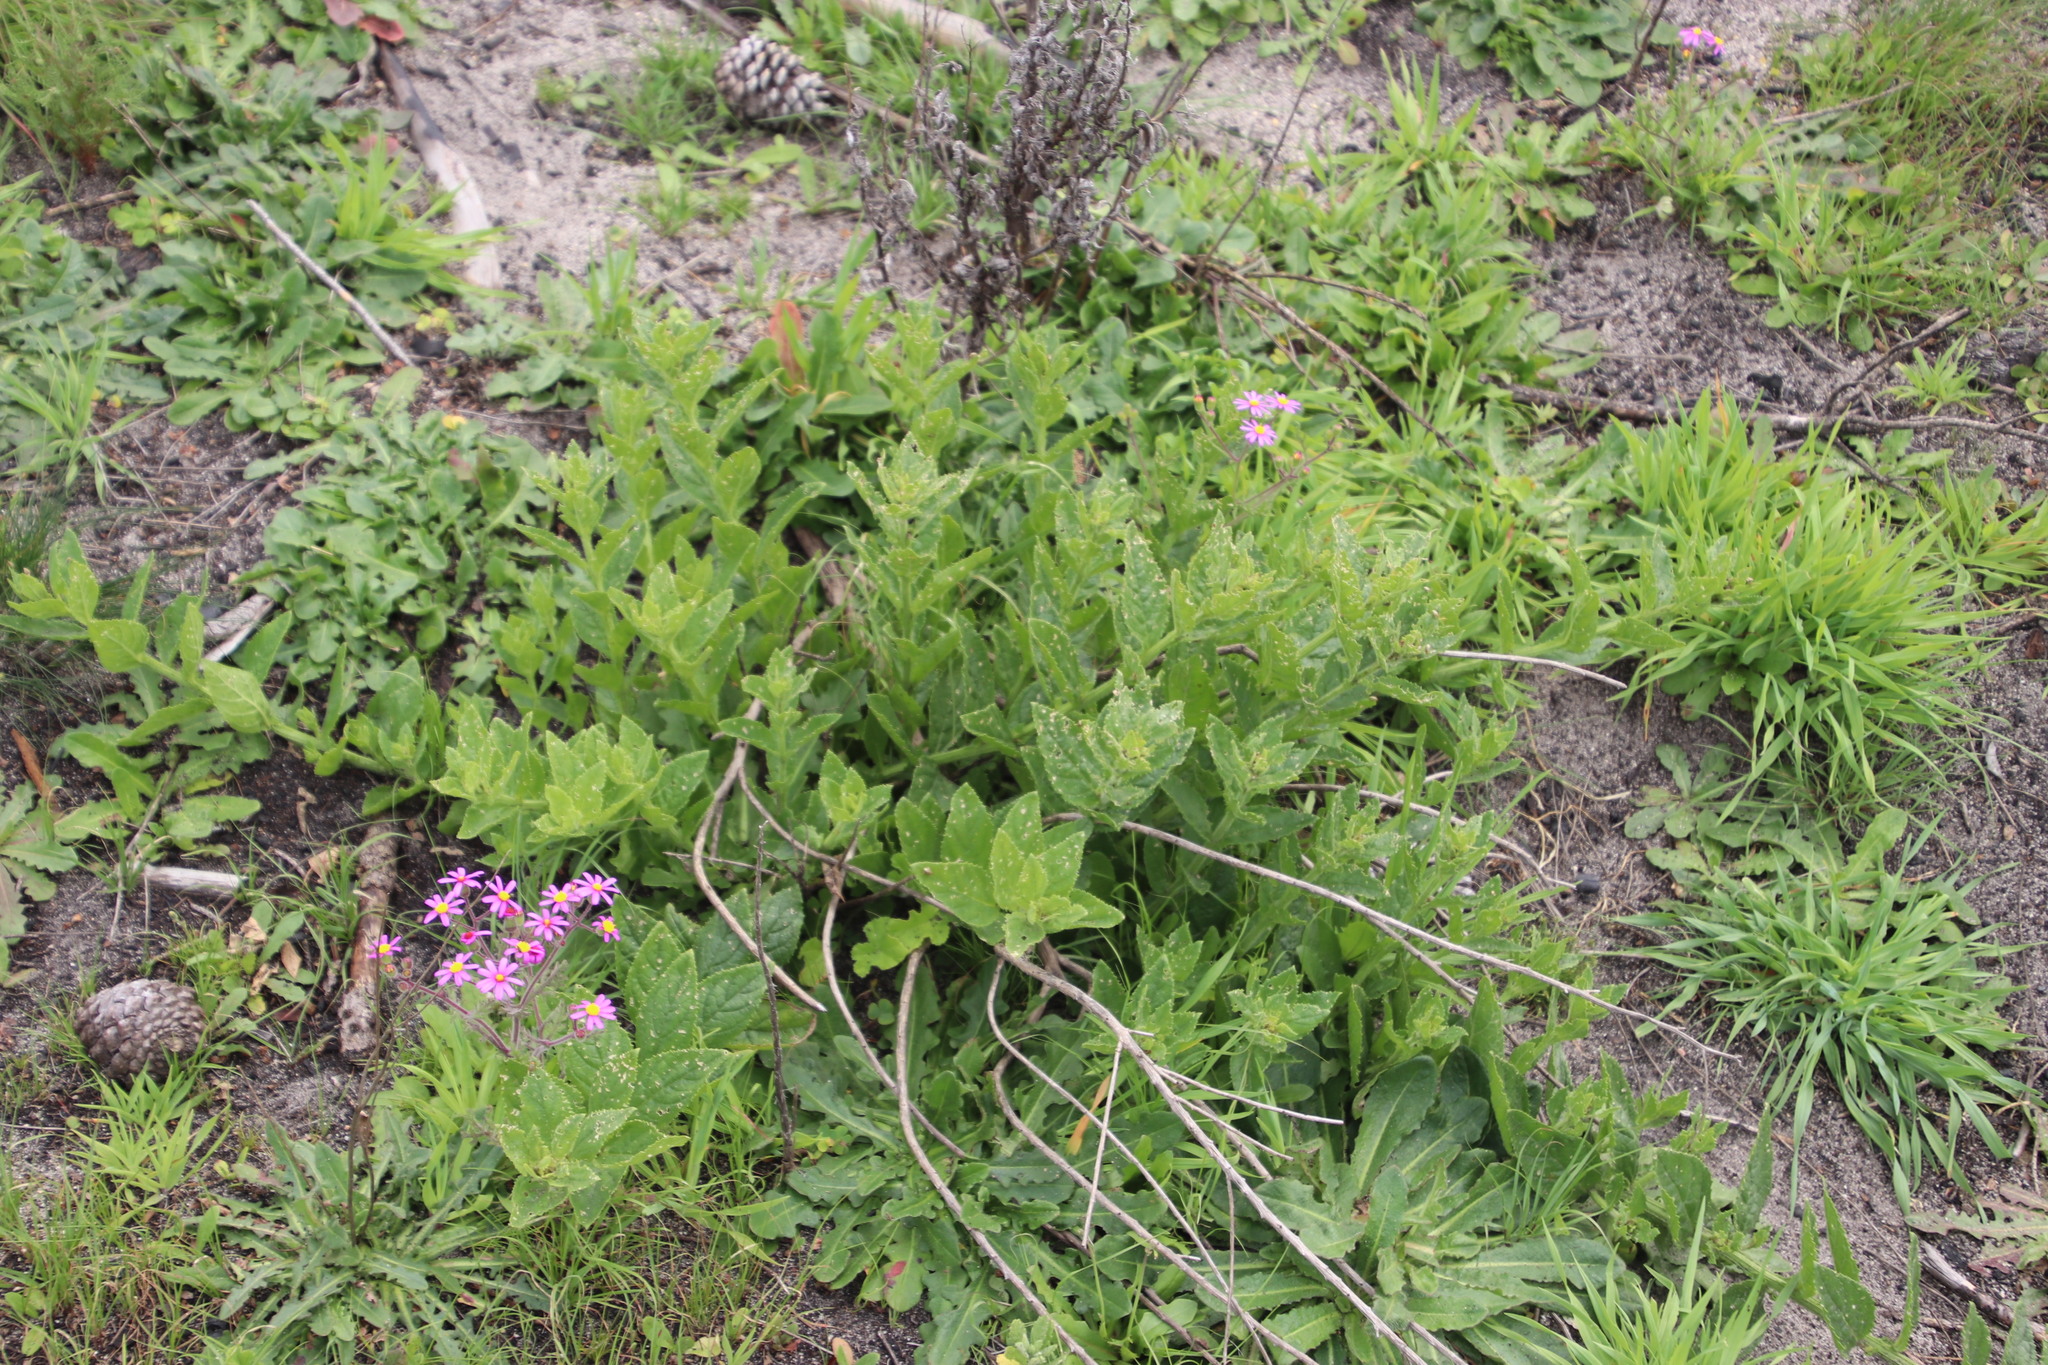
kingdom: Plantae
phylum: Tracheophyta
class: Magnoliopsida
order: Lamiales
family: Scrophulariaceae
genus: Oftia
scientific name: Oftia africana
